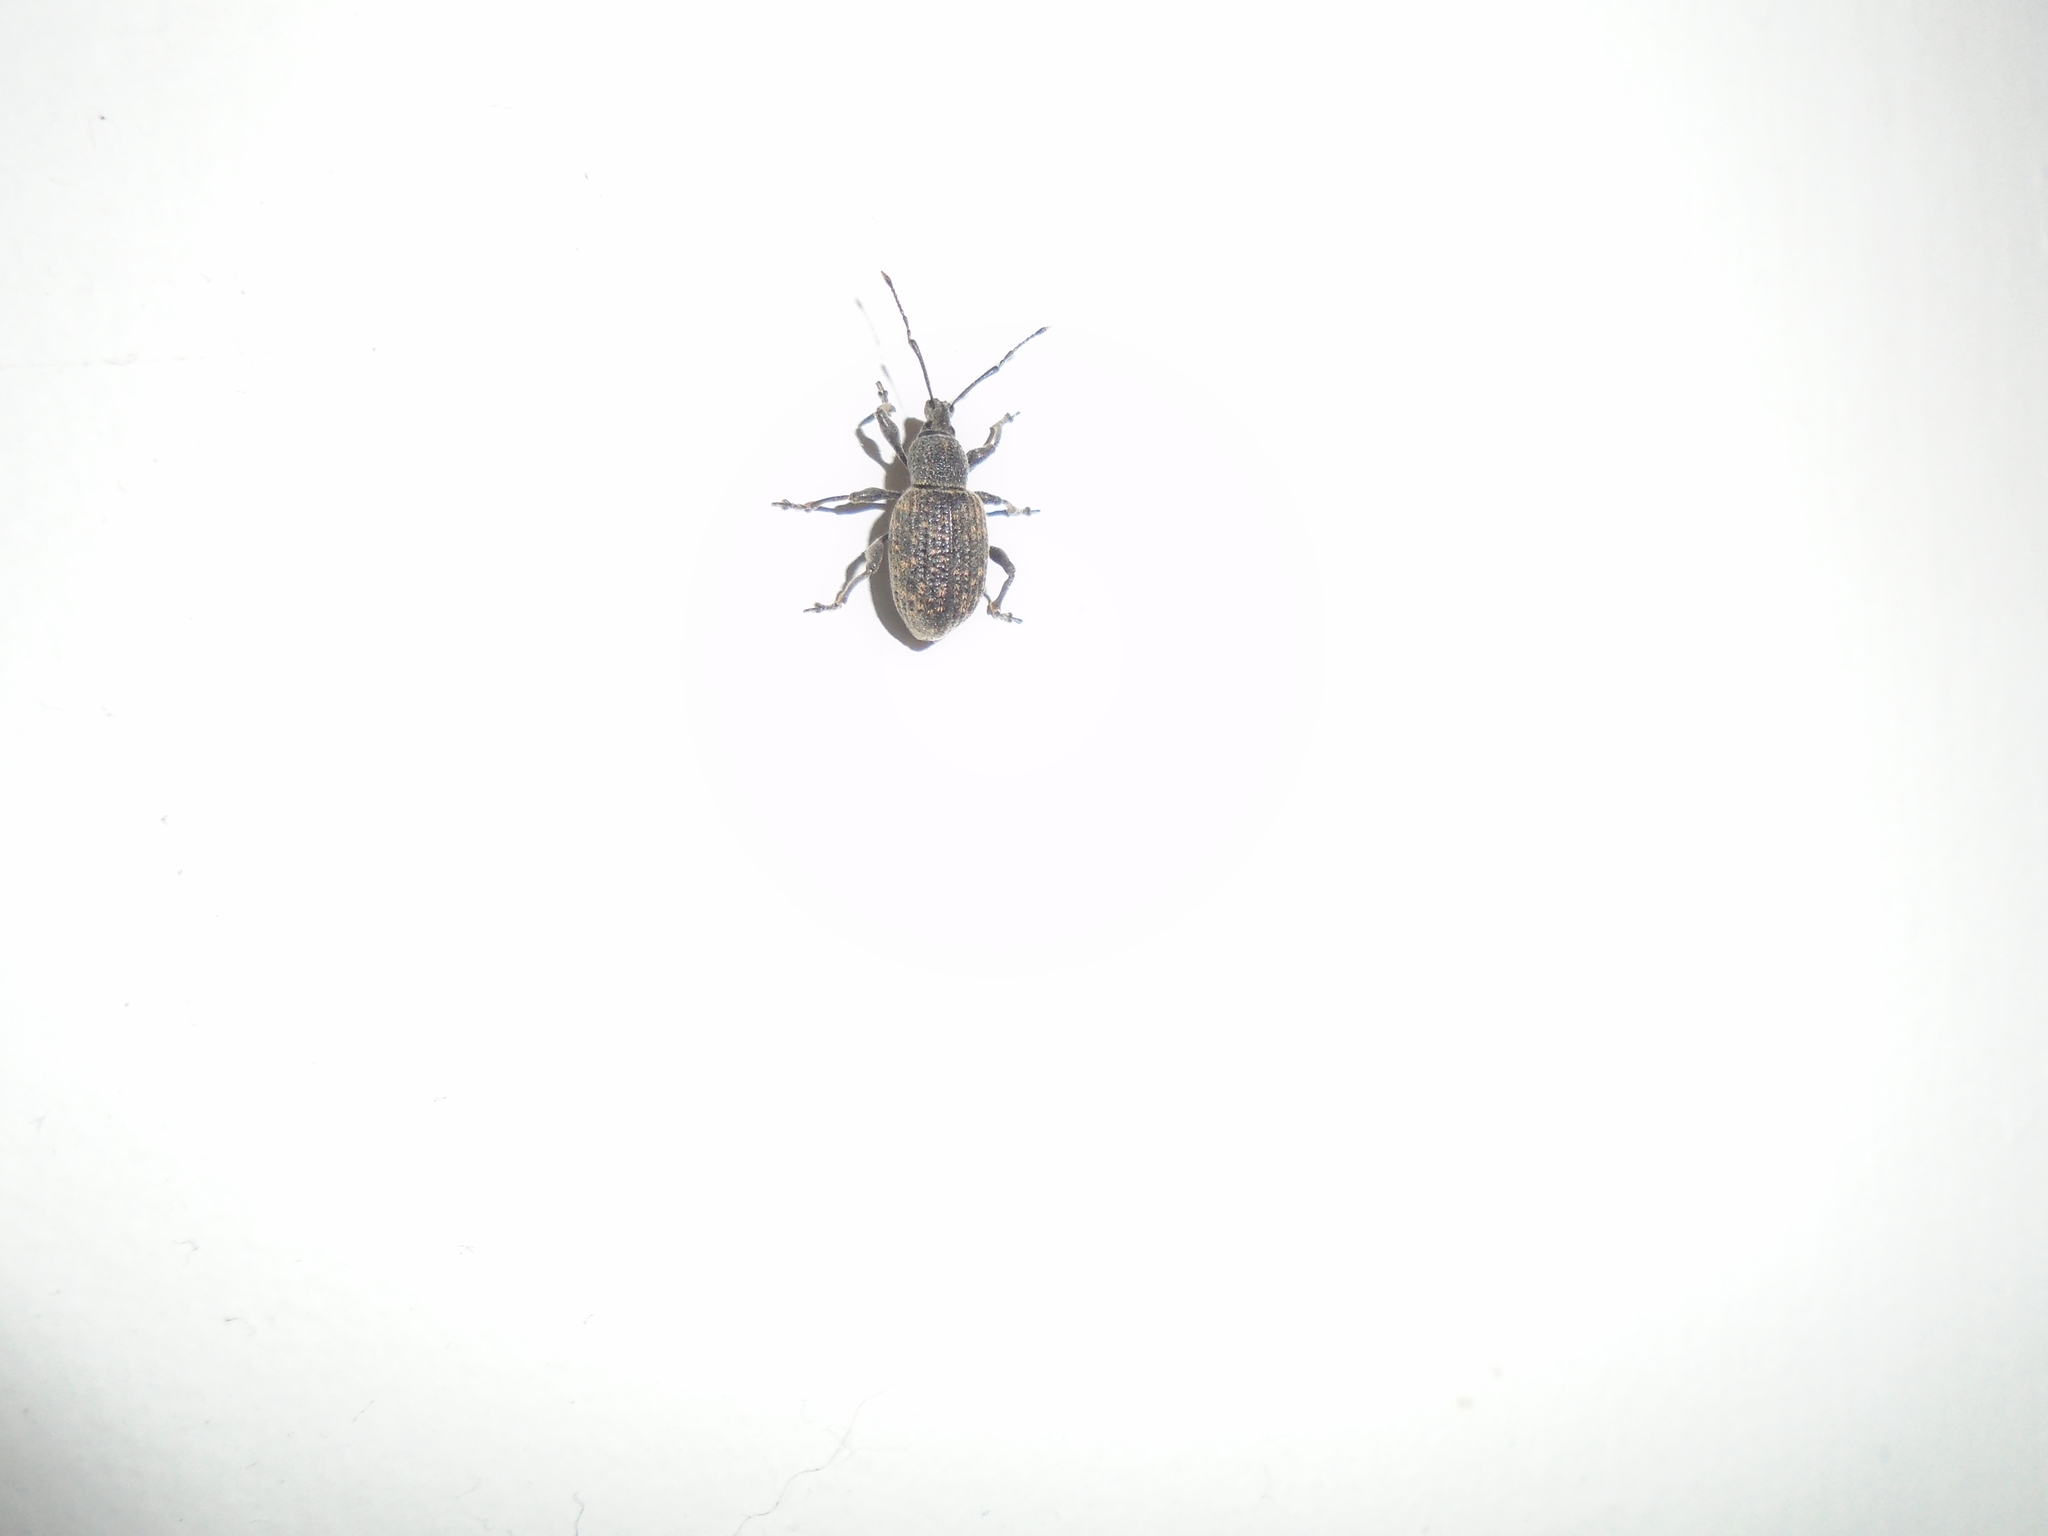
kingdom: Animalia
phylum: Arthropoda
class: Insecta
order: Coleoptera
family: Curculionidae
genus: Otiorhynchus
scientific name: Otiorhynchus sulcatus
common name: Black vine weevil
